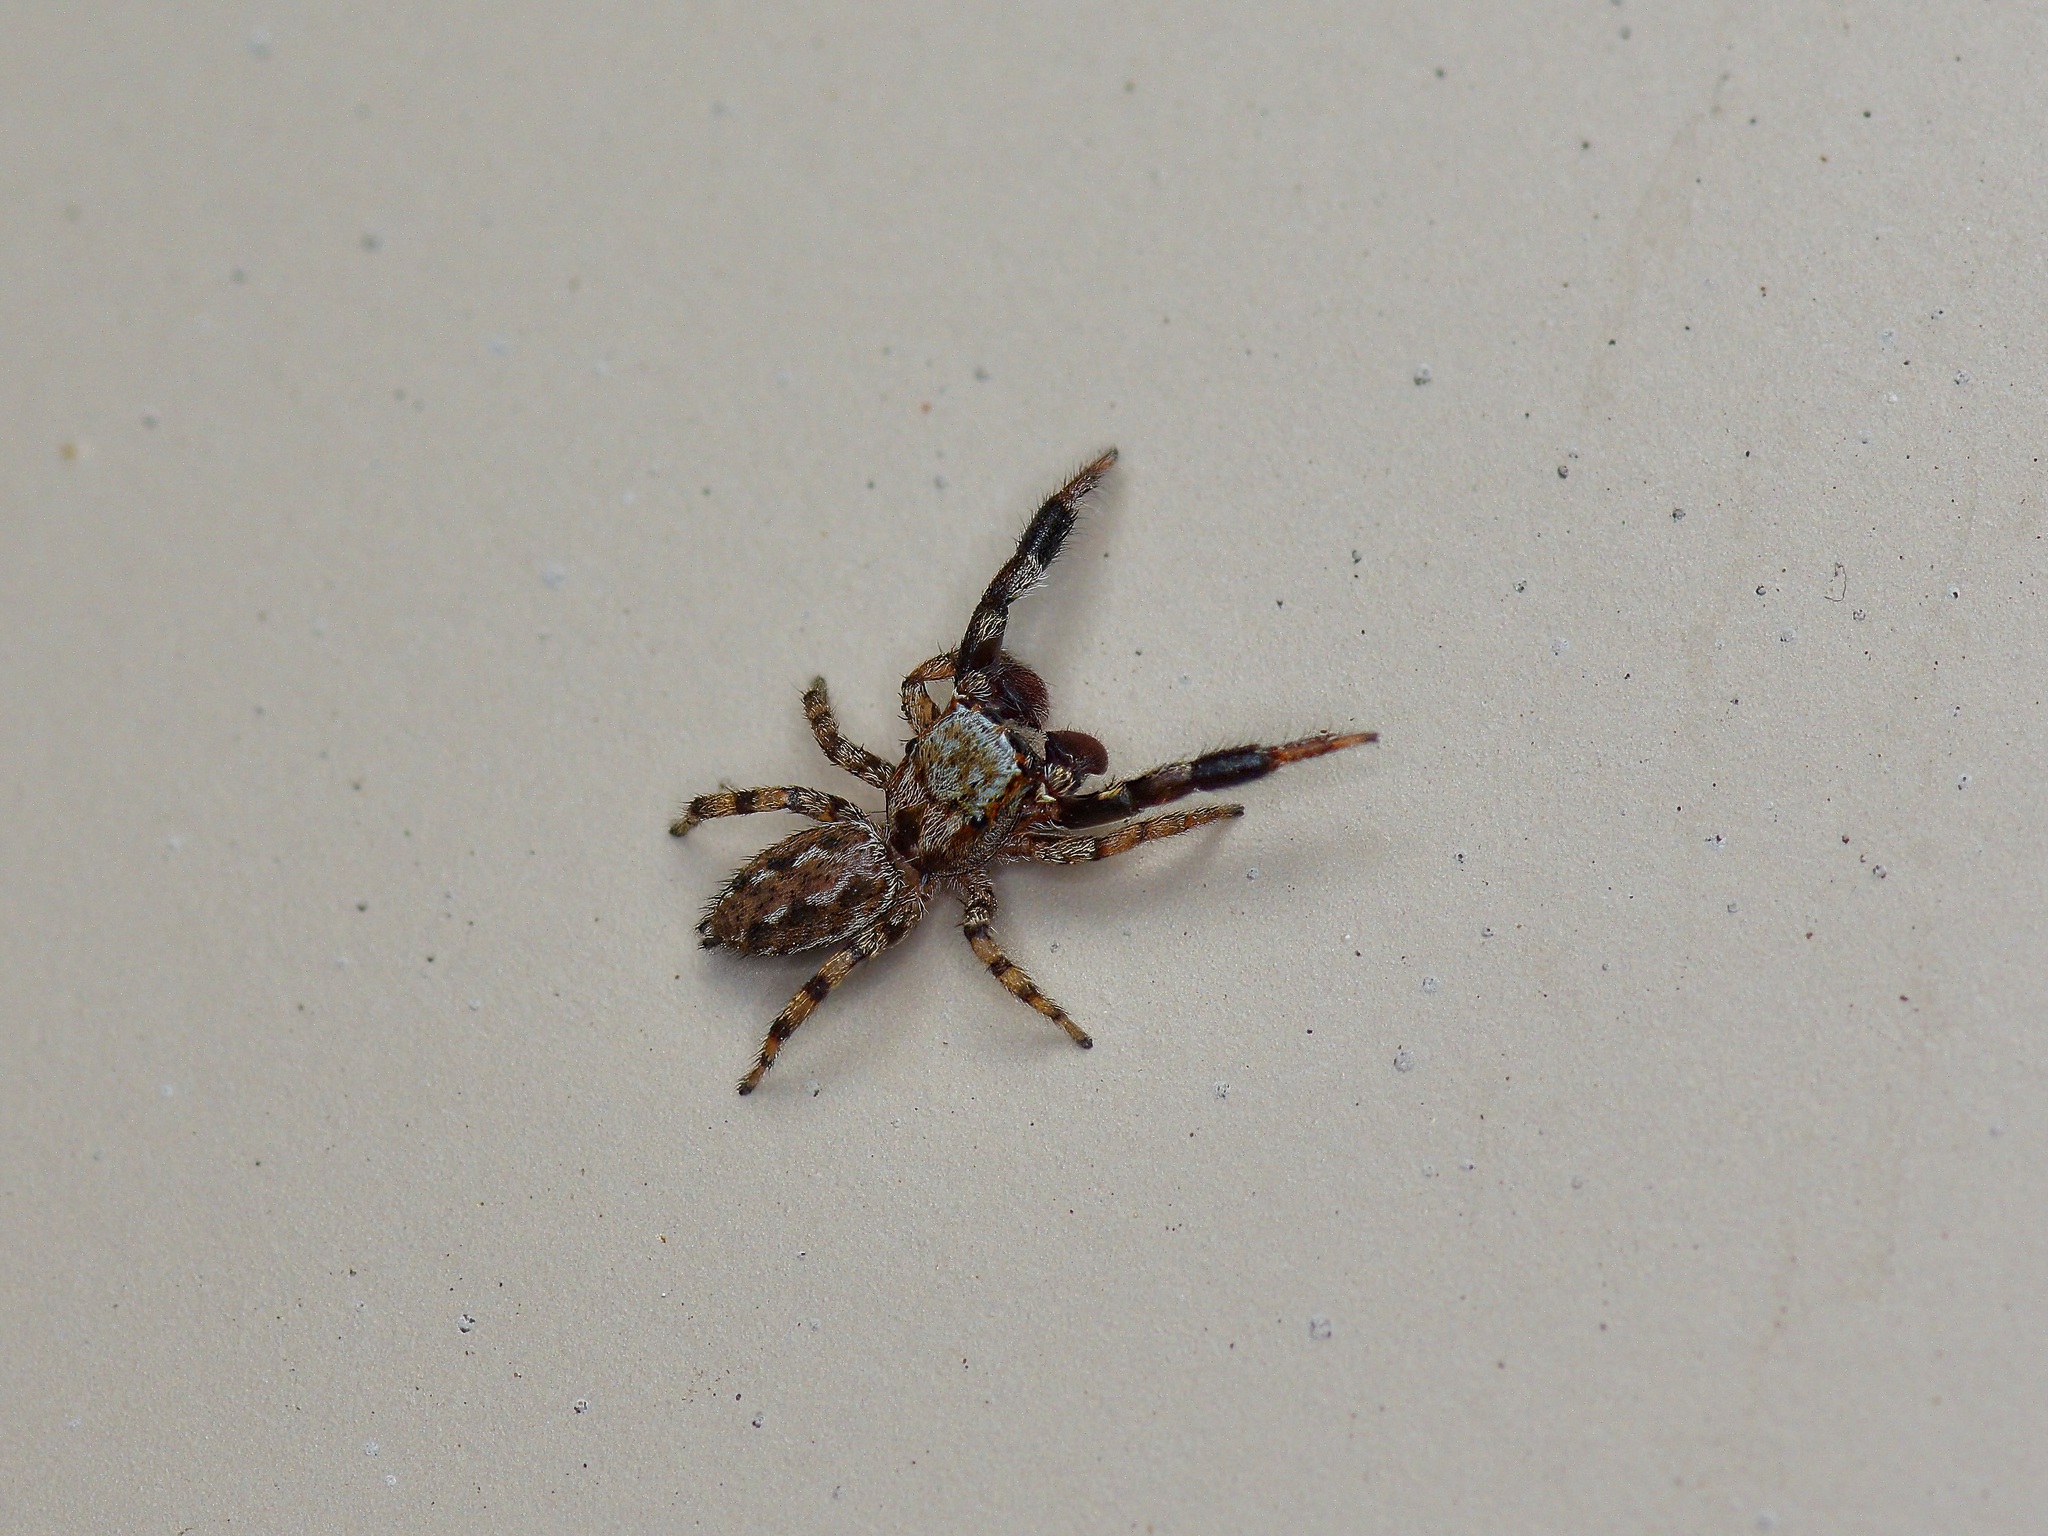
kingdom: Animalia
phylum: Arthropoda
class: Arachnida
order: Araneae
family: Salticidae
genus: Marpissa
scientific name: Marpissa obtusa
